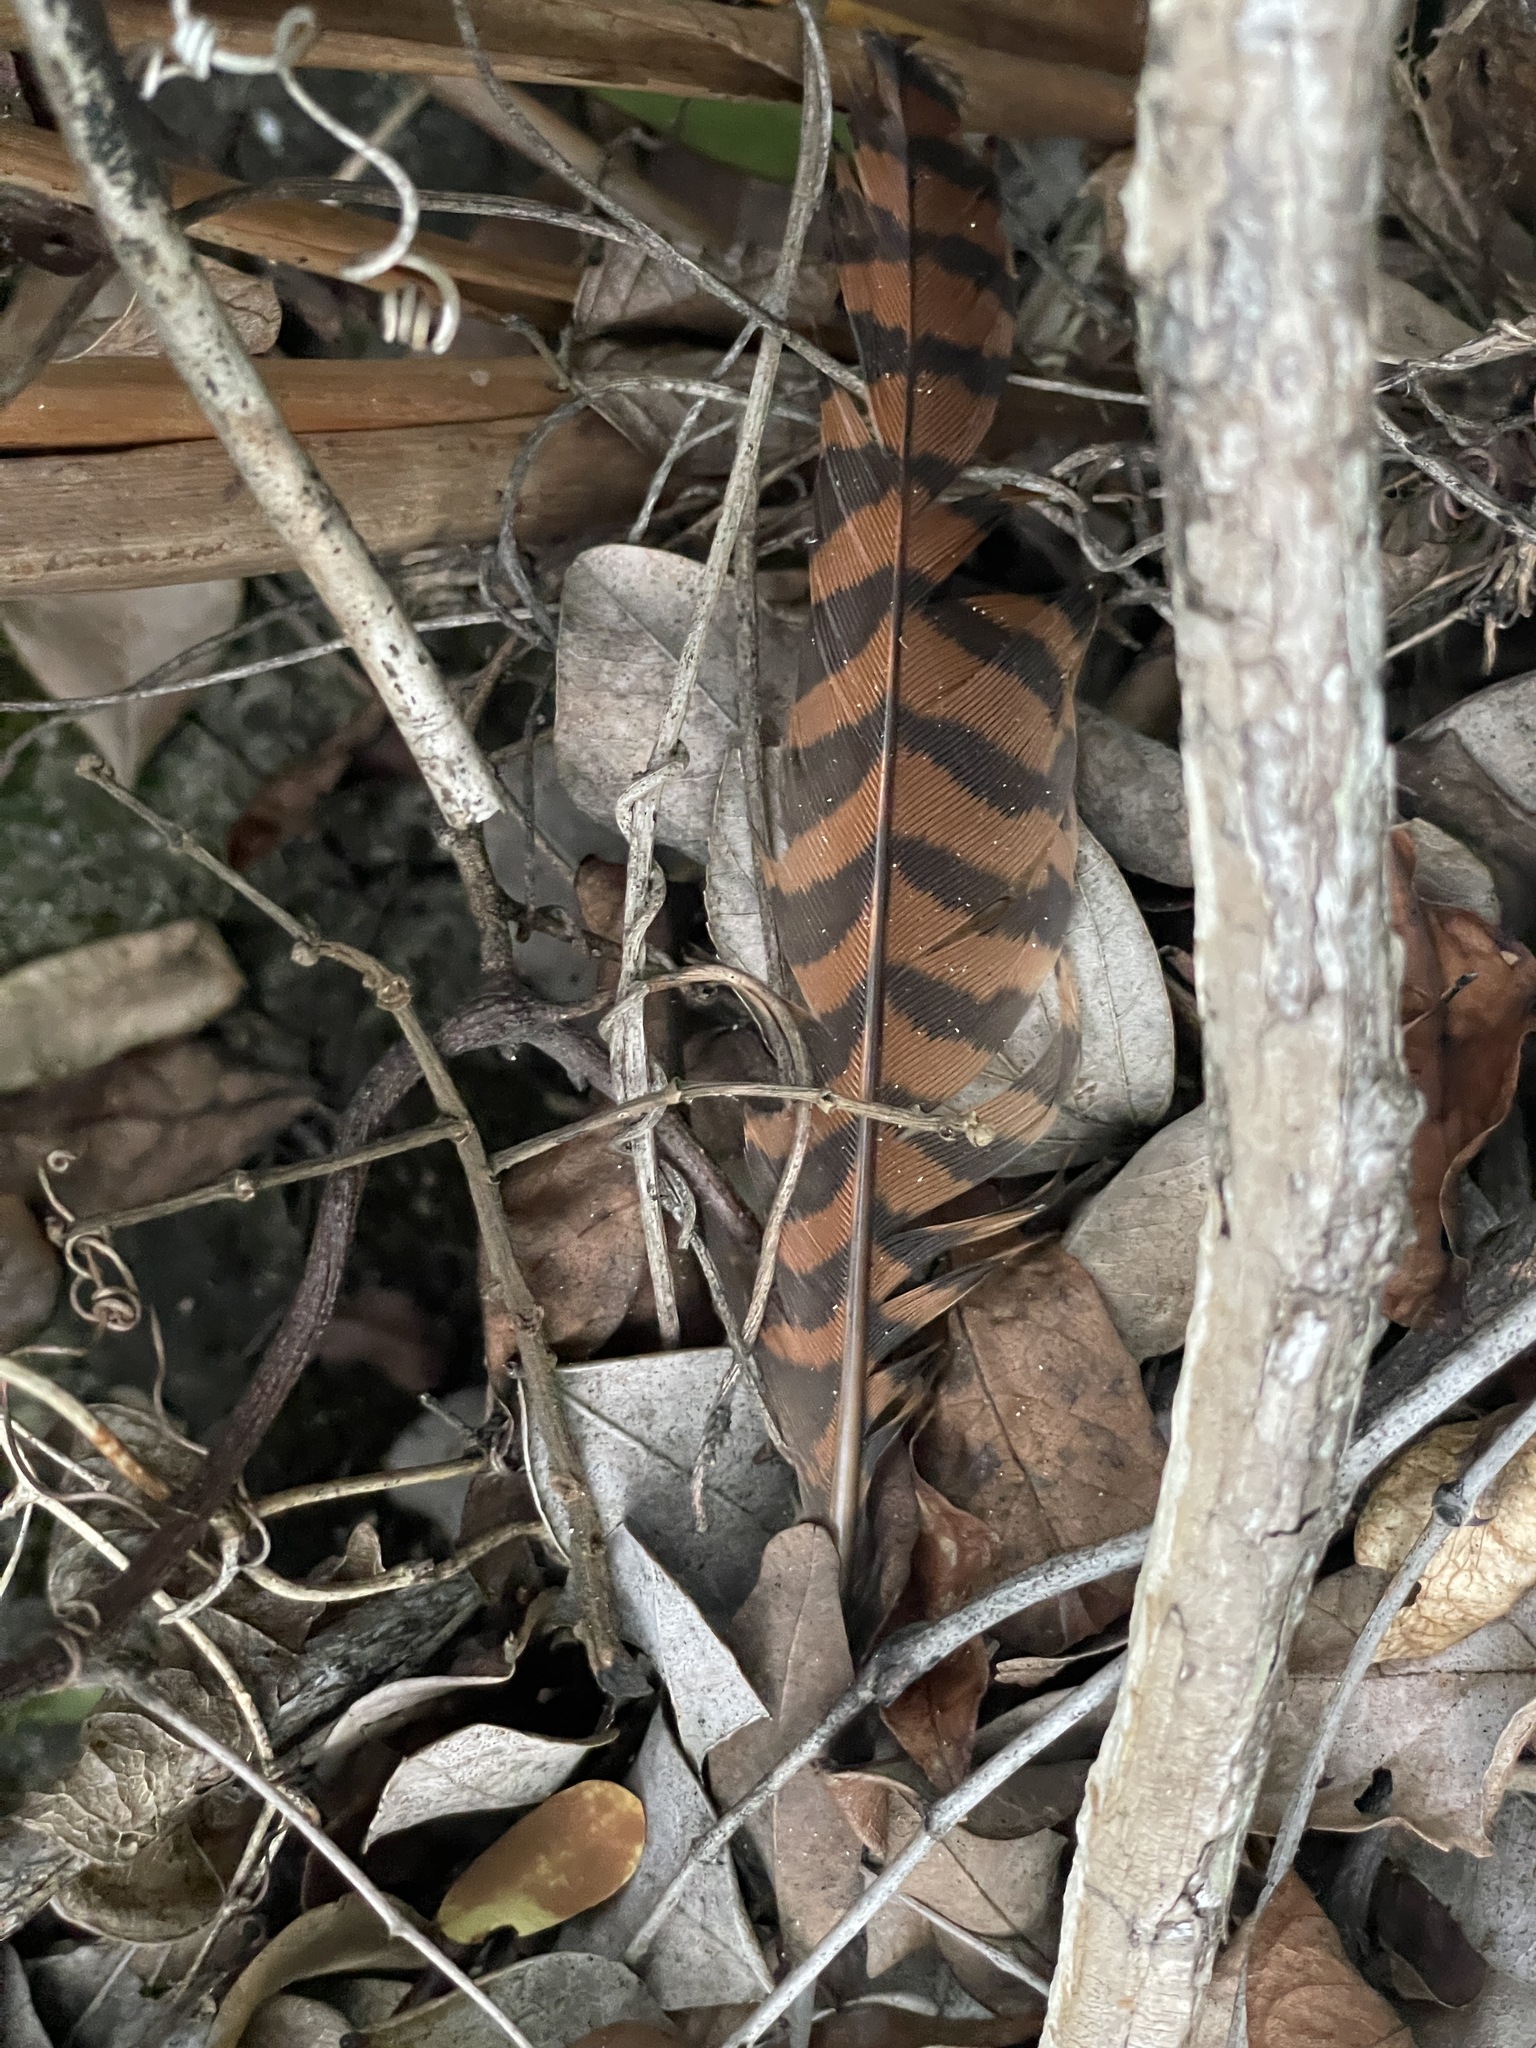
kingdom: Animalia
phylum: Chordata
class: Aves
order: Cuculiformes
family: Cuculidae
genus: Centropus
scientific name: Centropus sinensis
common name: Greater coucal
